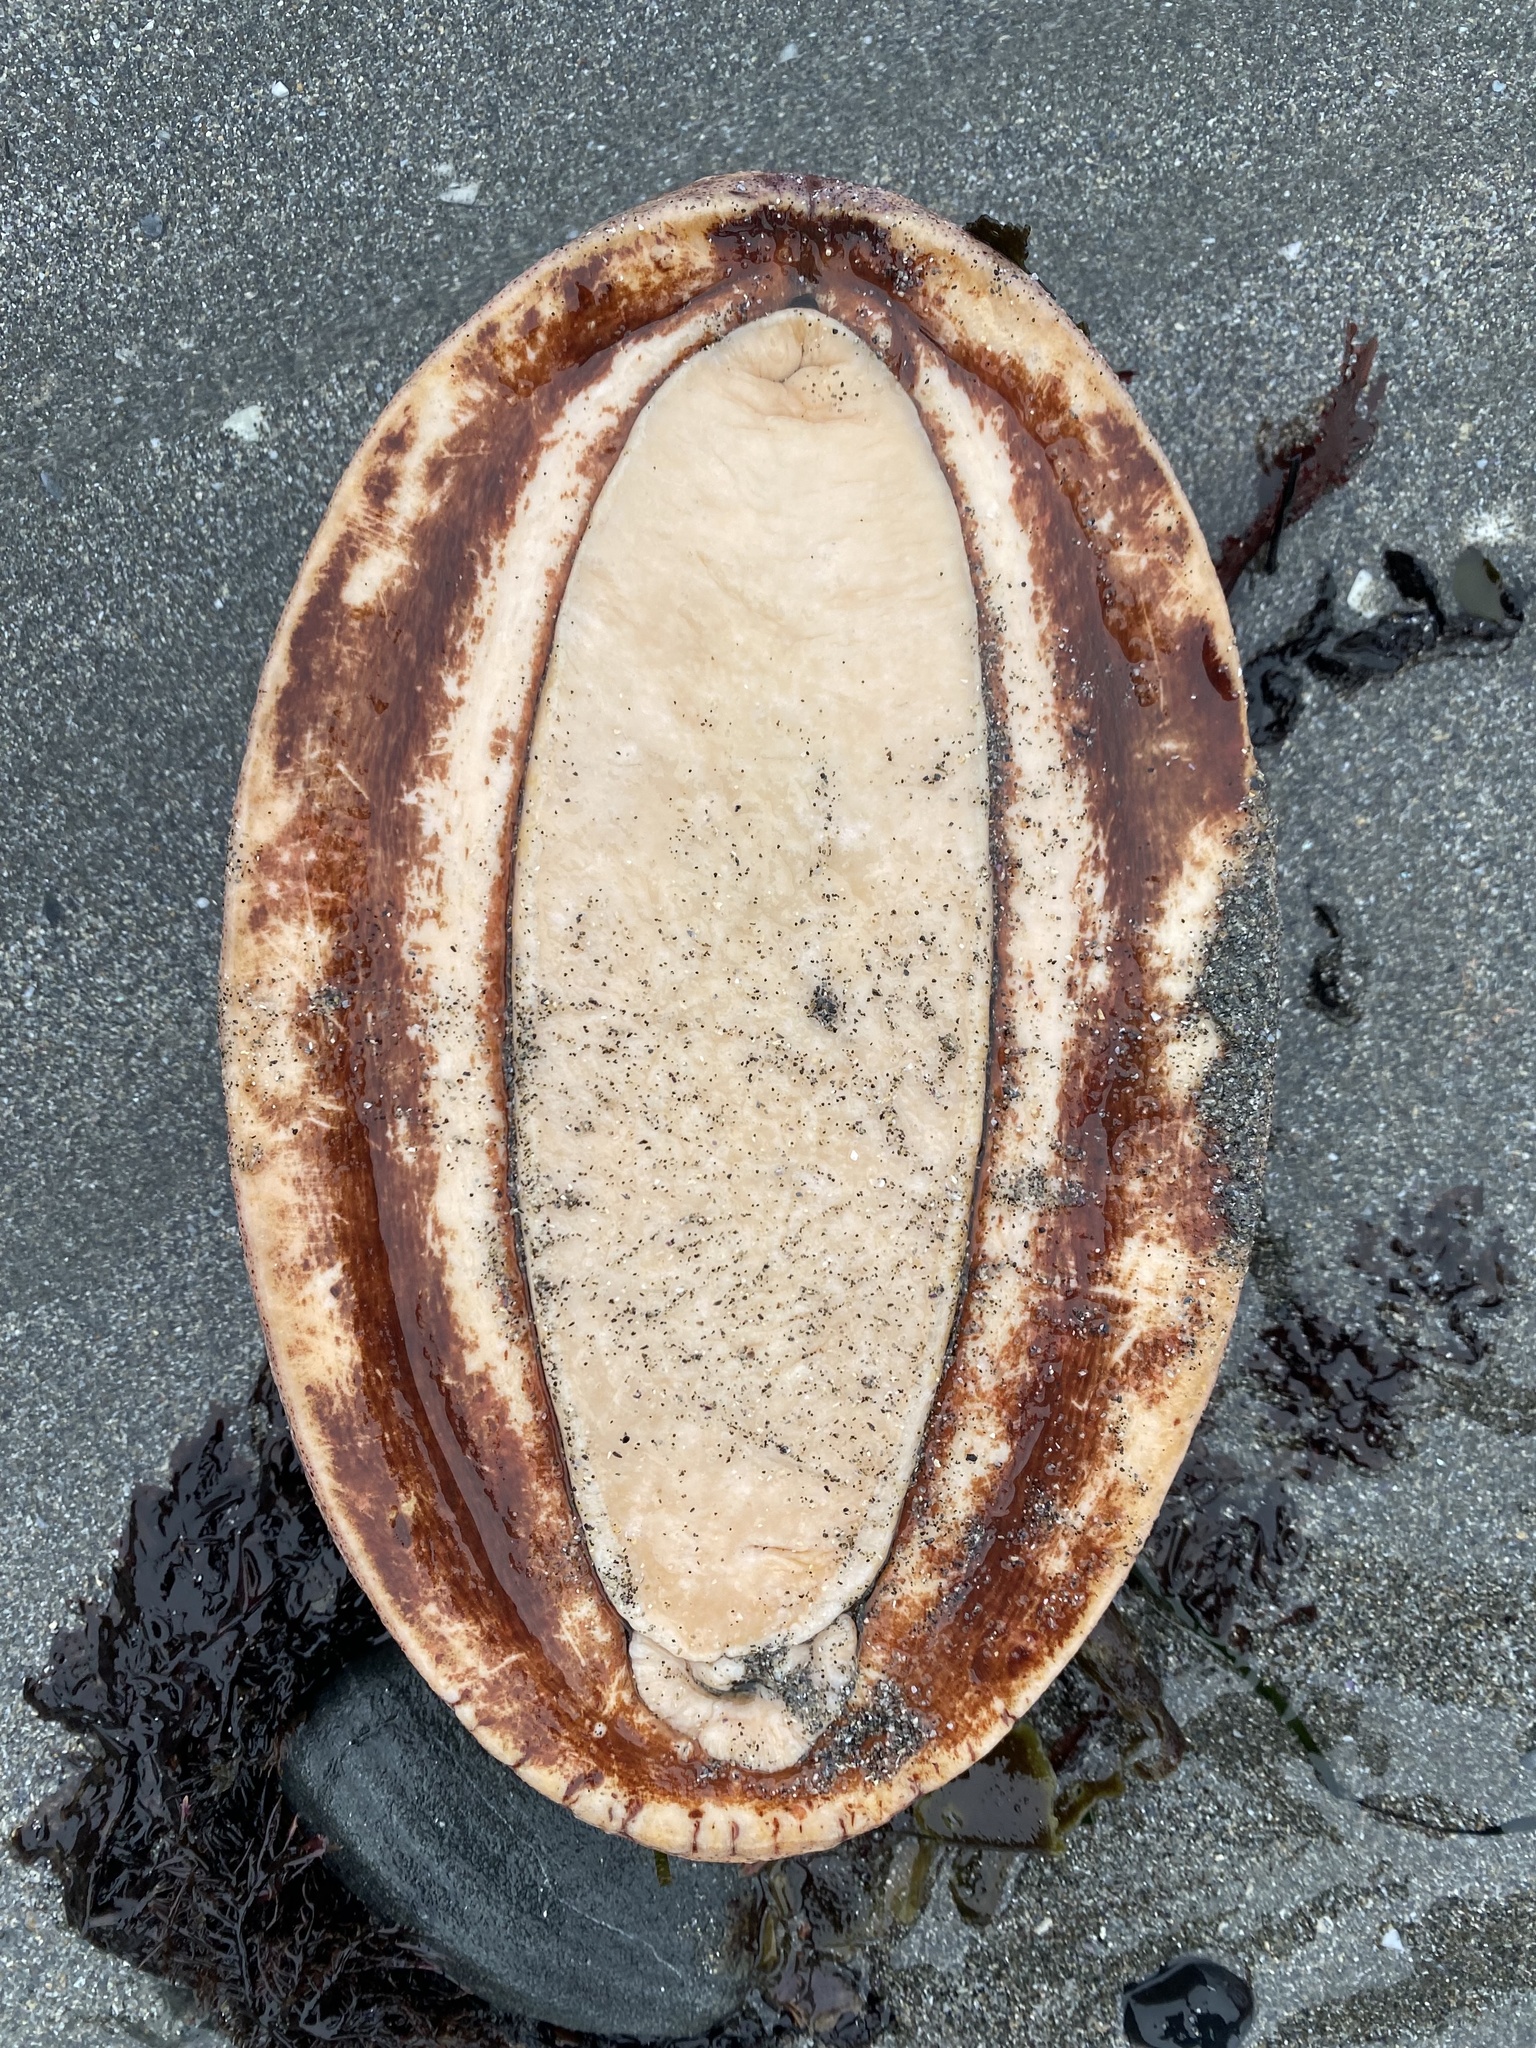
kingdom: Animalia
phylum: Mollusca
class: Polyplacophora
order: Chitonida
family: Acanthochitonidae
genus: Cryptochiton
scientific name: Cryptochiton stelleri
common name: Giant pacific chiton
